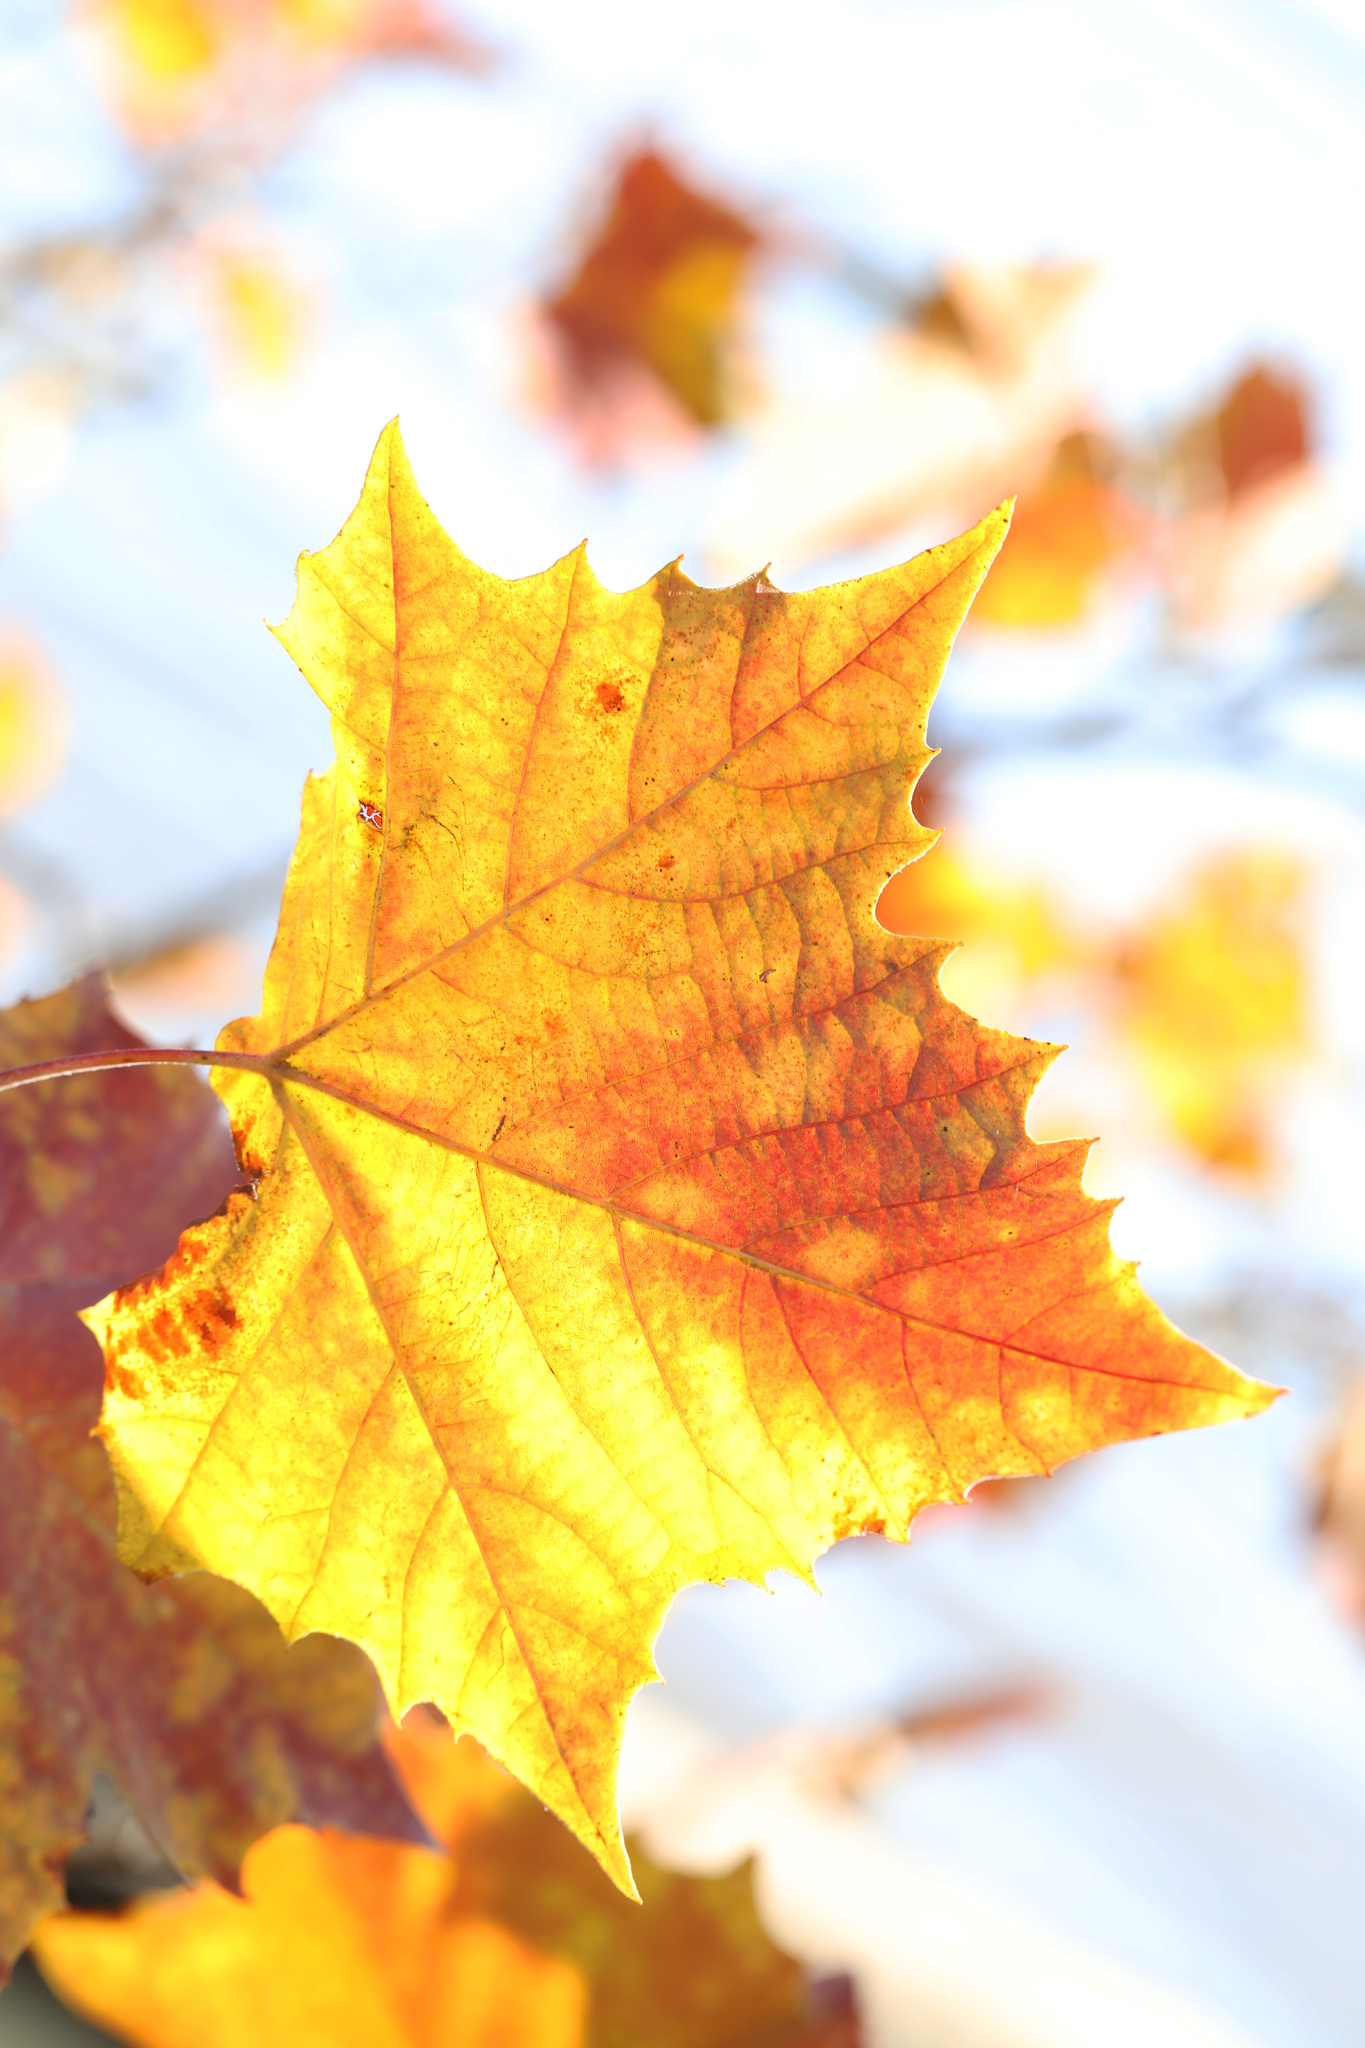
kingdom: Plantae
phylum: Tracheophyta
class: Magnoliopsida
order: Proteales
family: Platanaceae
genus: Platanus
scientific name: Platanus occidentalis
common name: American sycamore
